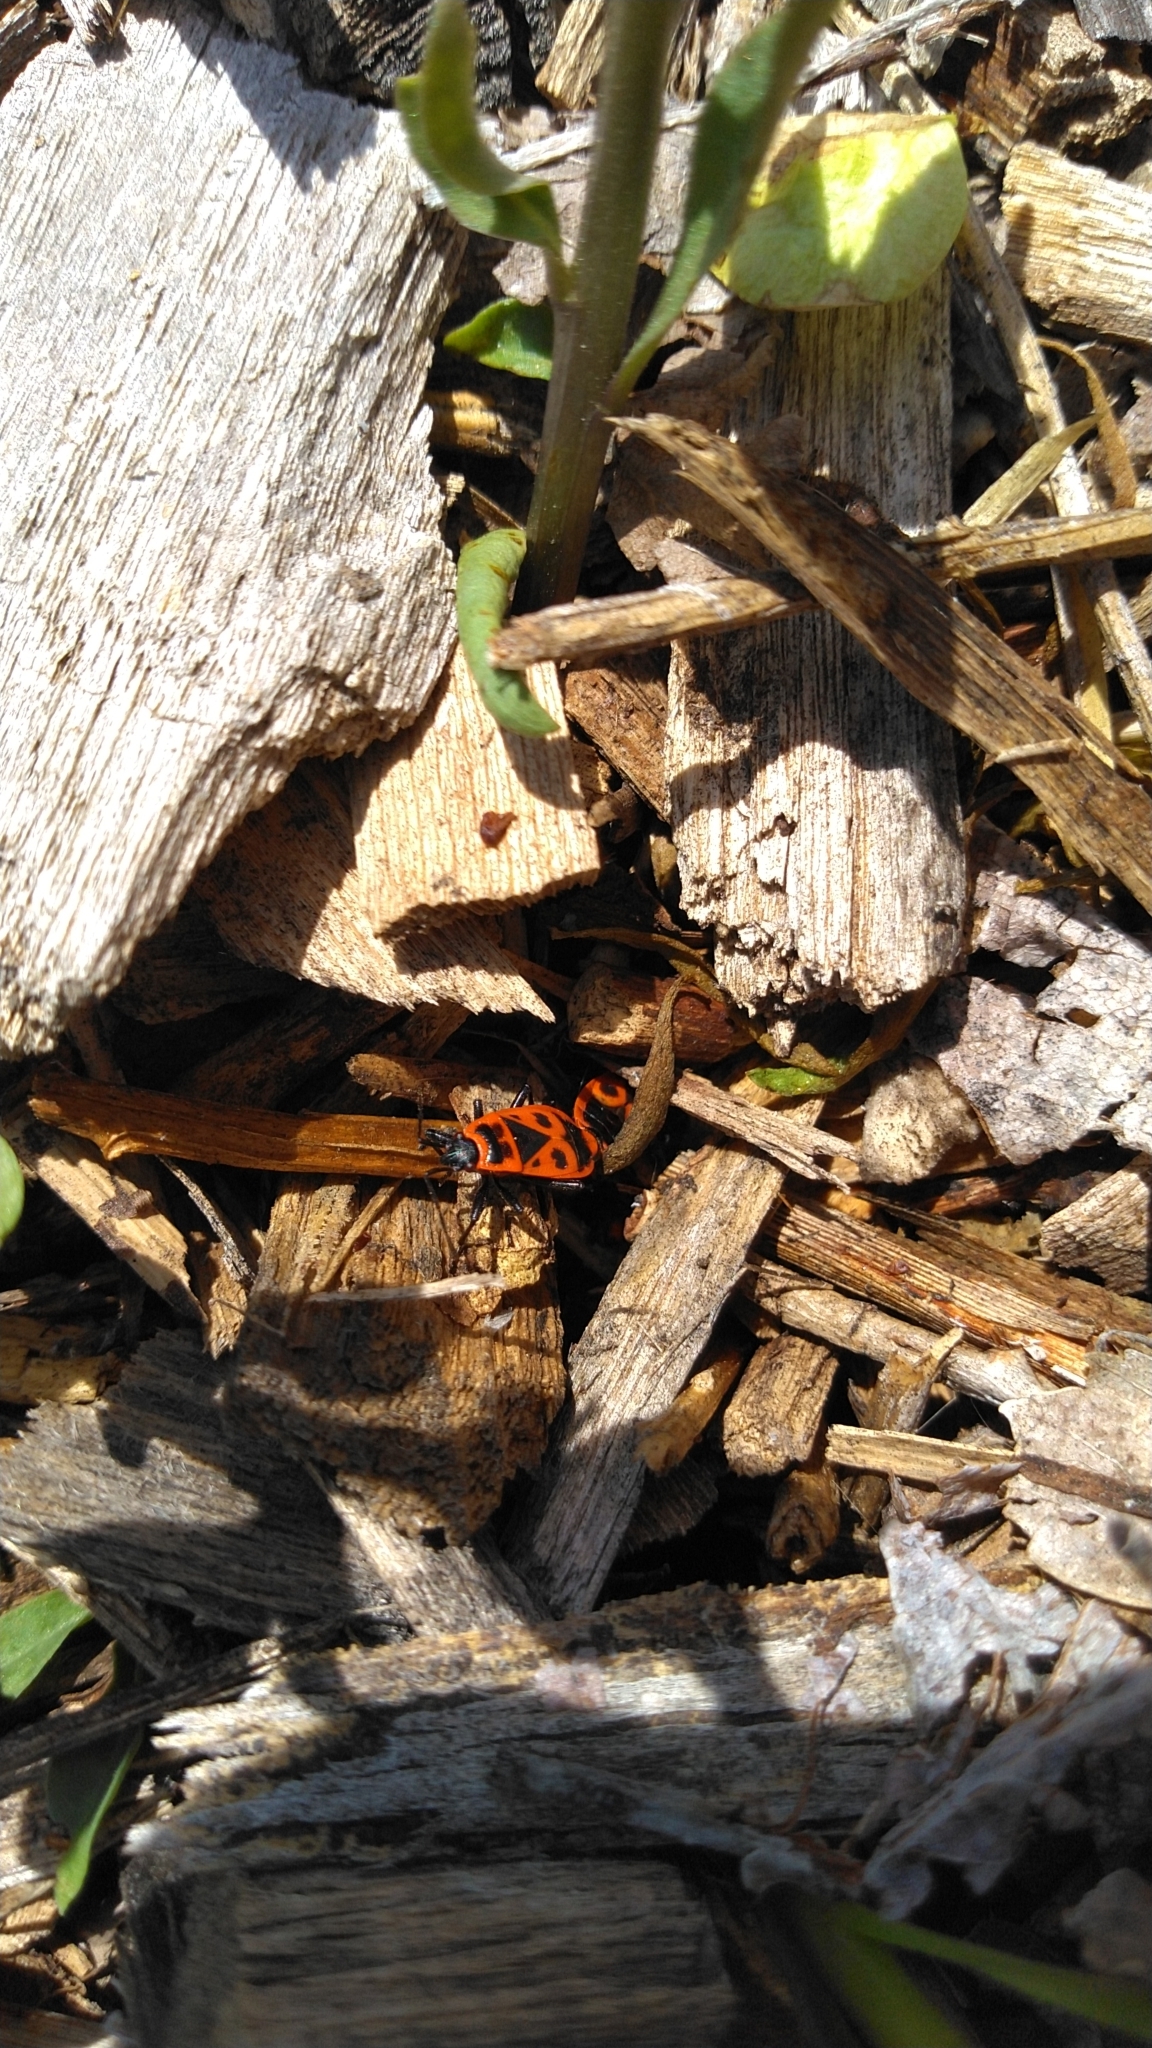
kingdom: Animalia
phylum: Arthropoda
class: Insecta
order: Hemiptera
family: Pyrrhocoridae
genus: Pyrrhocoris
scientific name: Pyrrhocoris apterus
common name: Firebug
